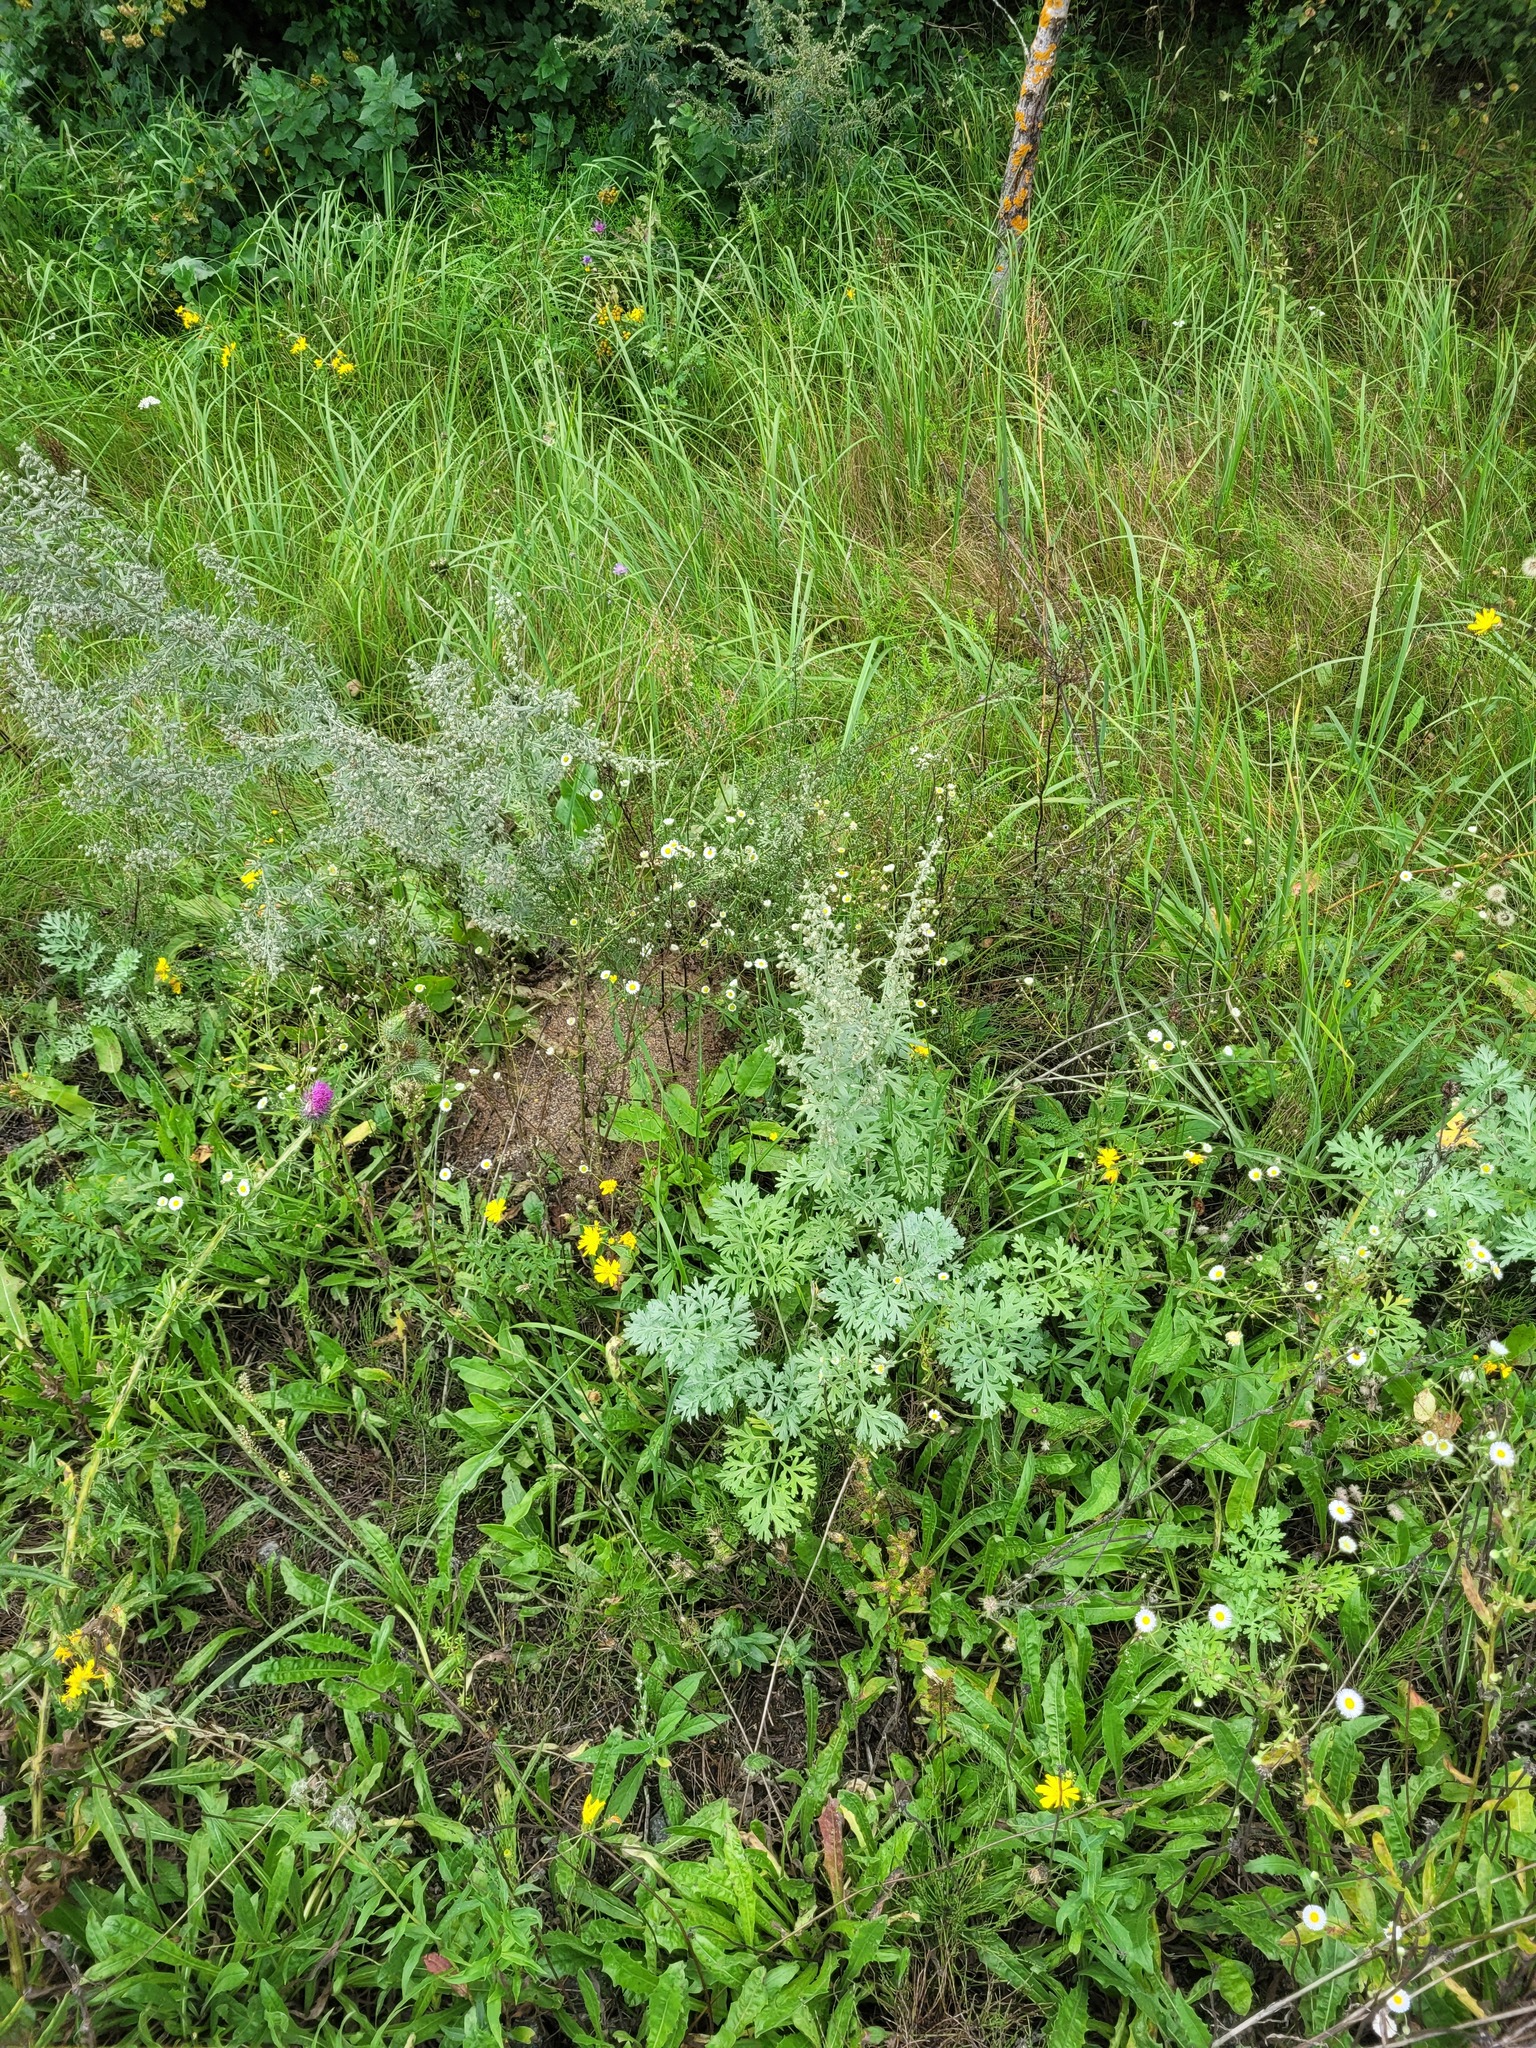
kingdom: Plantae
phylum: Tracheophyta
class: Magnoliopsida
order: Asterales
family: Asteraceae
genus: Artemisia
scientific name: Artemisia absinthium
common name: Wormwood
